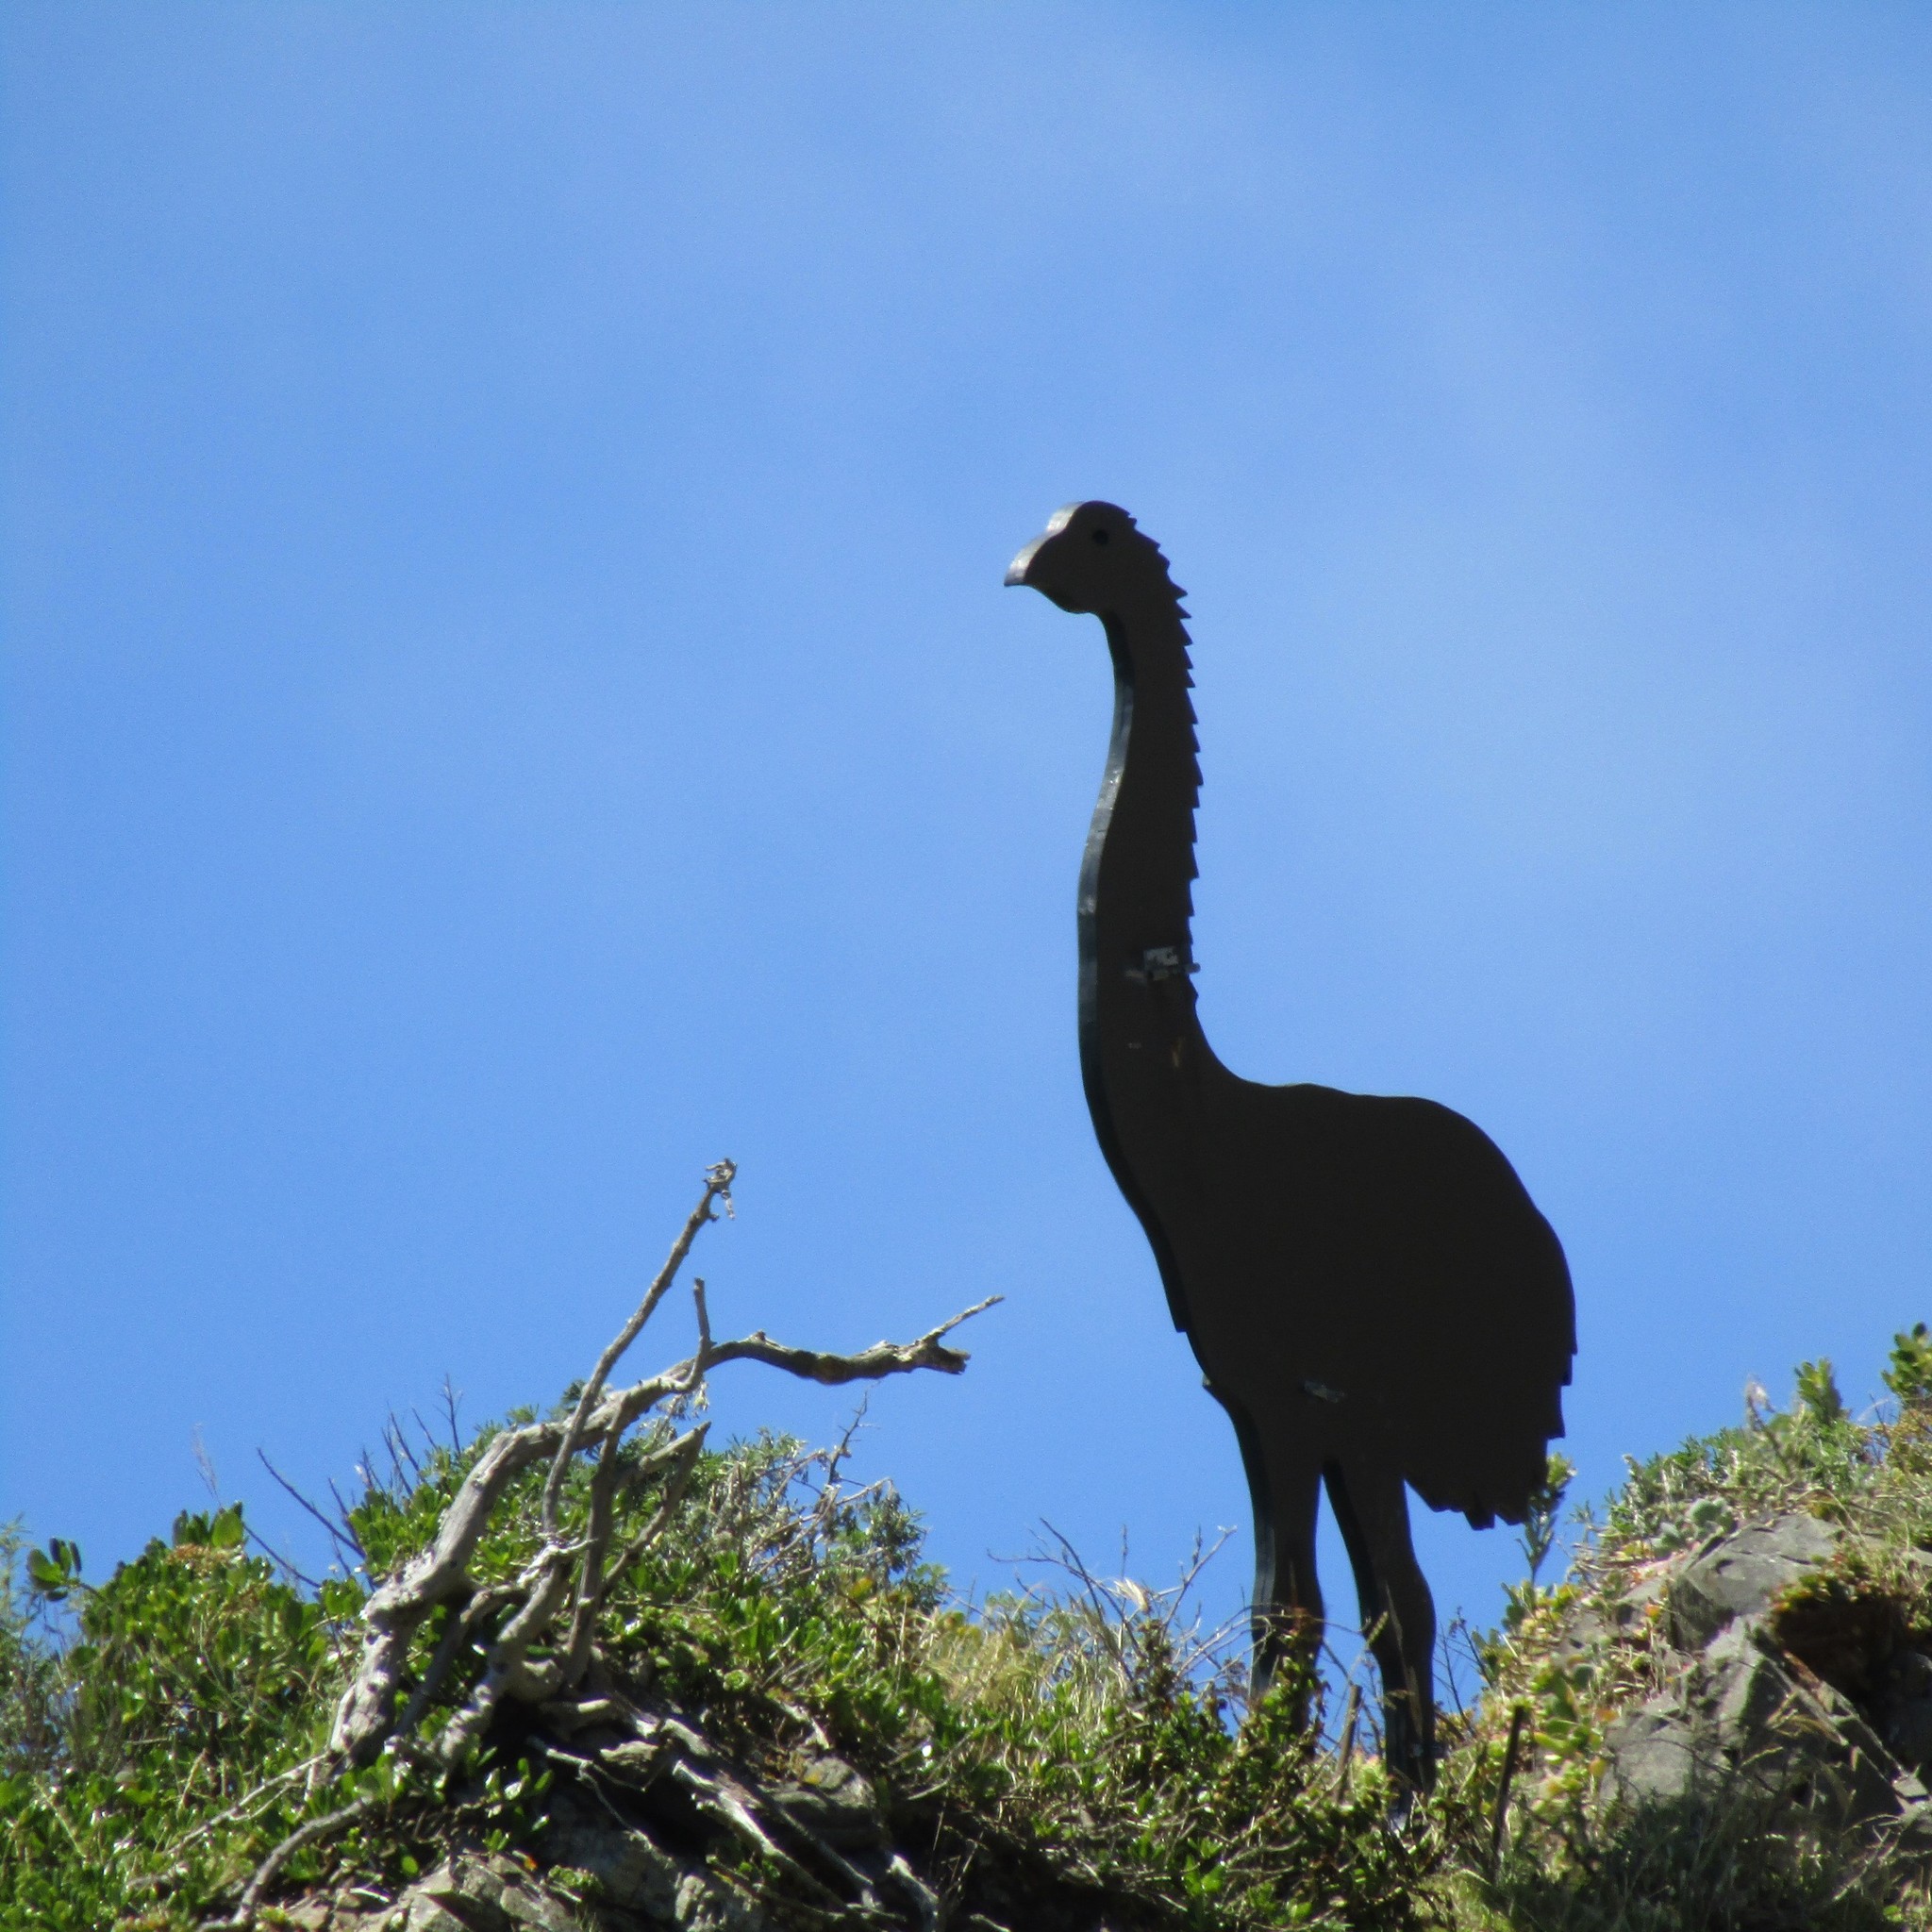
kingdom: Plantae
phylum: Tracheophyta
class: Magnoliopsida
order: Gentianales
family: Rubiaceae
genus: Coprosma
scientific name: Coprosma repens
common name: Tree bedstraw
